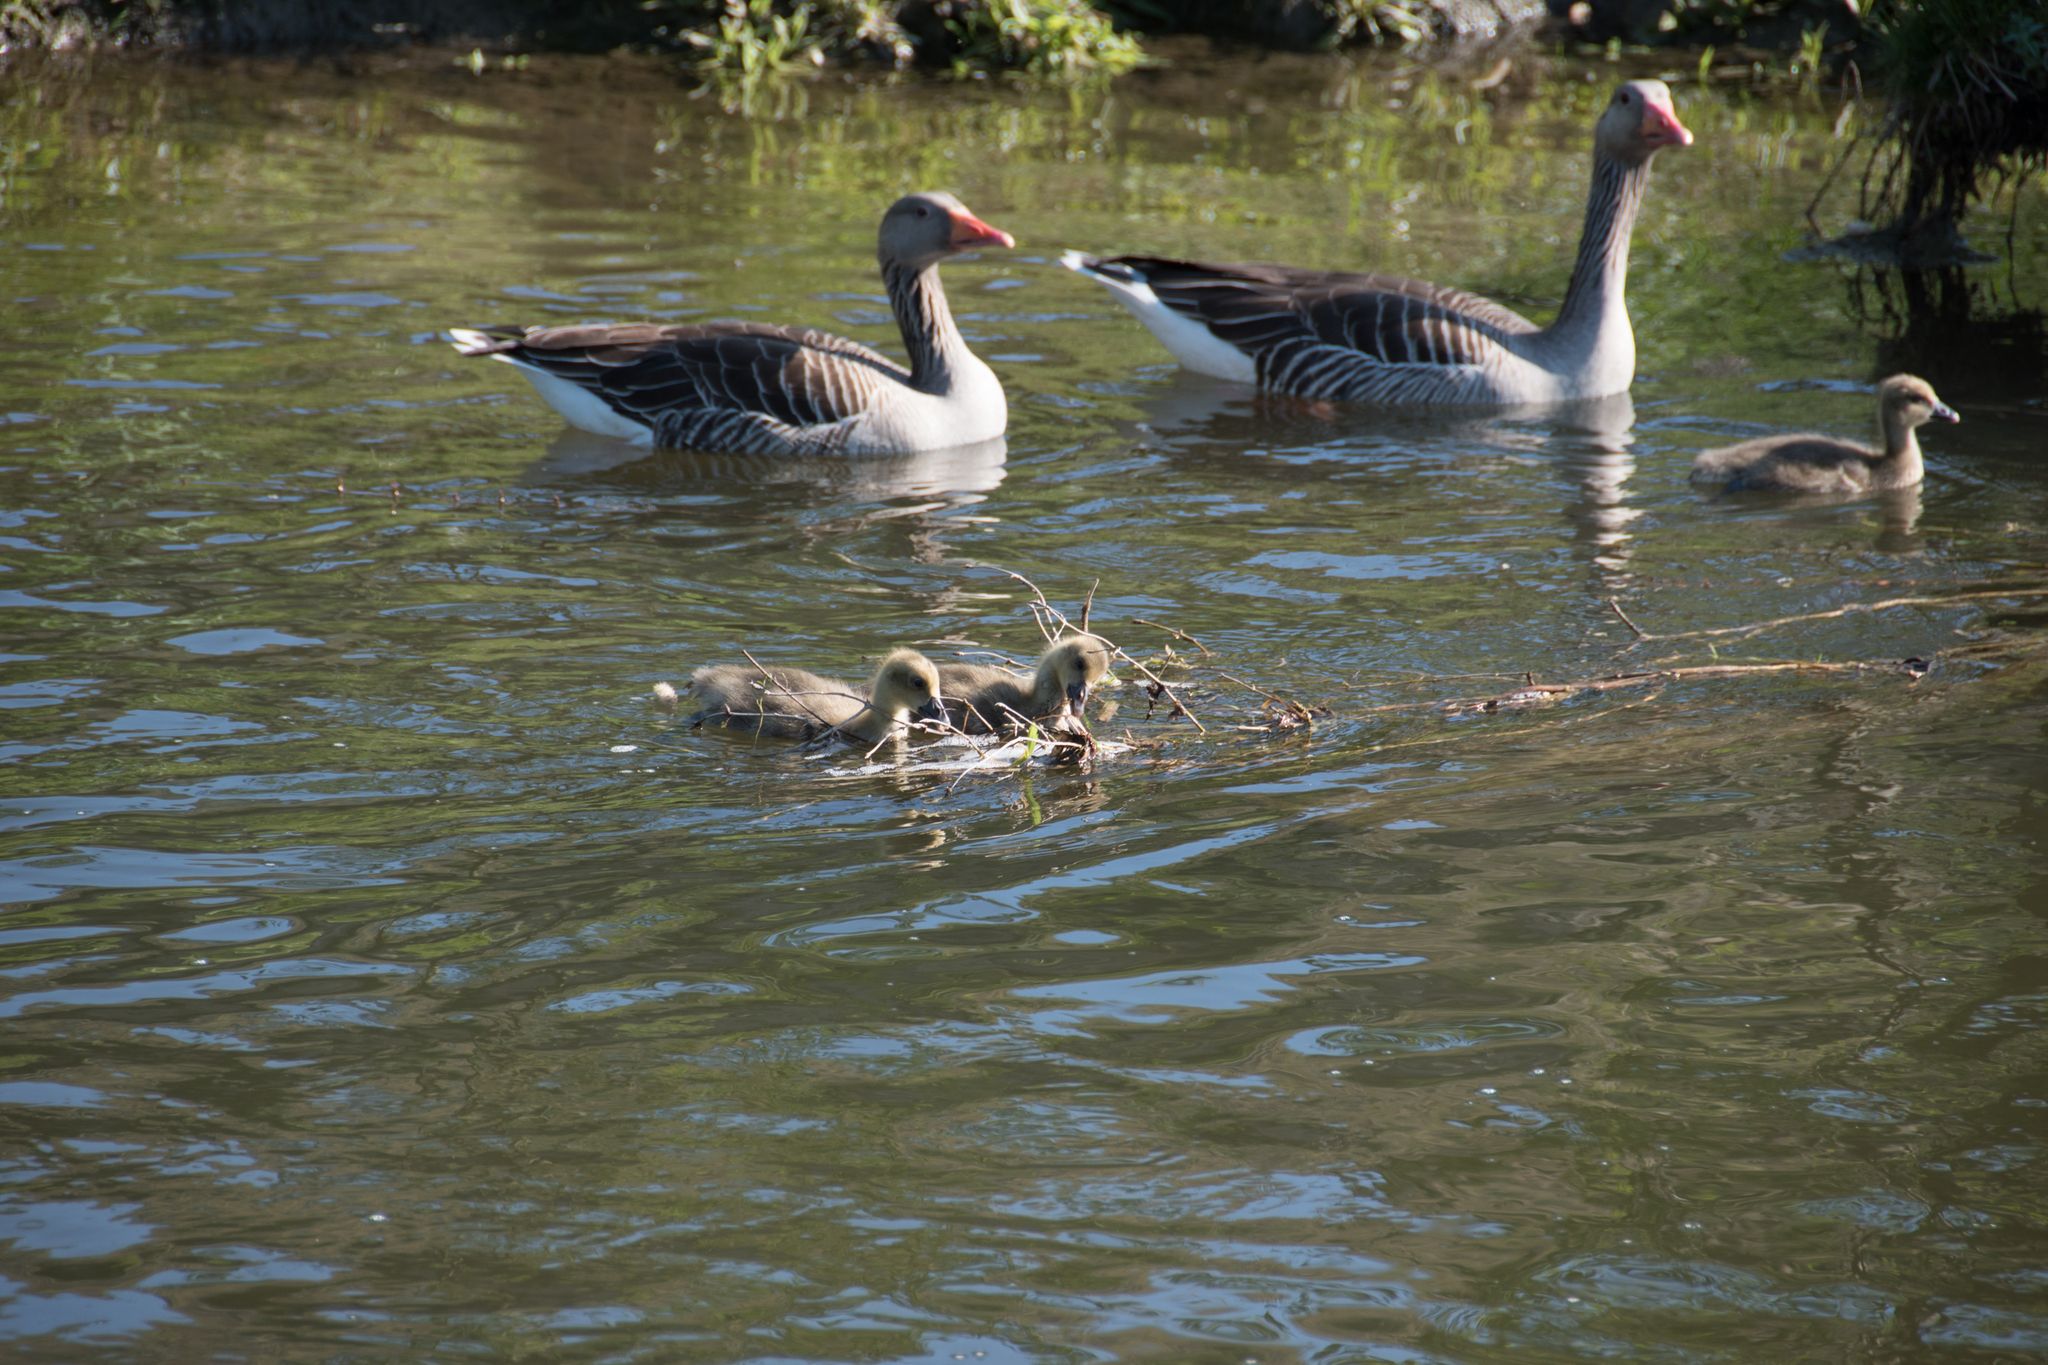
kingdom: Animalia
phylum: Chordata
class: Aves
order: Anseriformes
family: Anatidae
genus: Anser
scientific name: Anser anser
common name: Greylag goose
